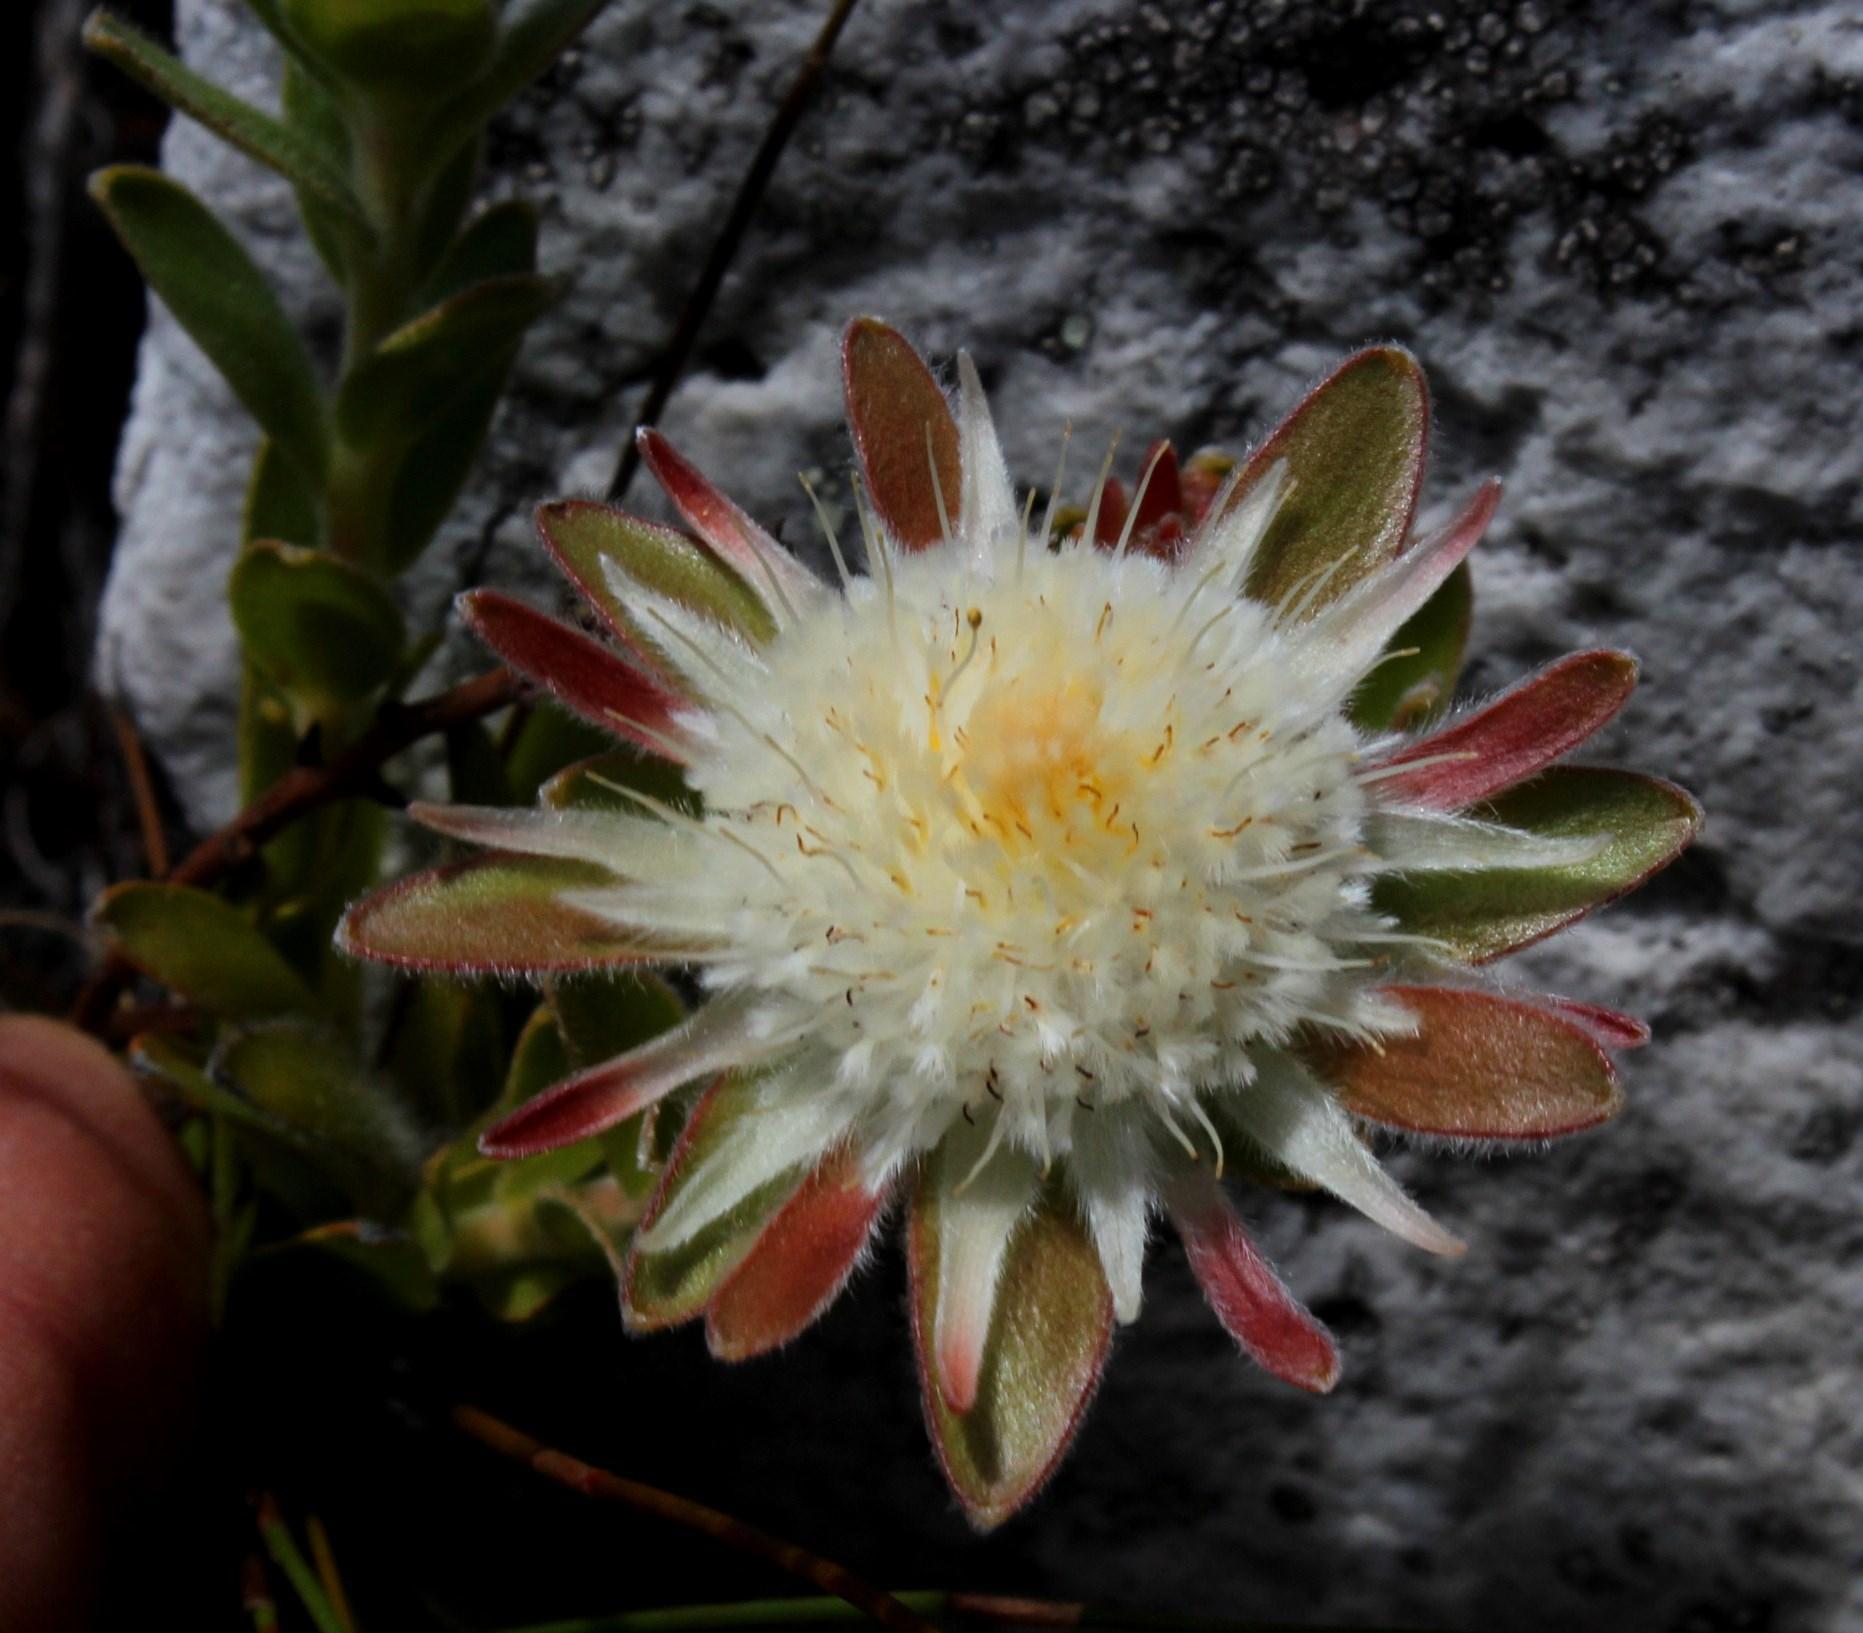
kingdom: Plantae
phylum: Tracheophyta
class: Magnoliopsida
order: Proteales
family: Proteaceae
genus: Diastella
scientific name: Diastella thymelaeoides
